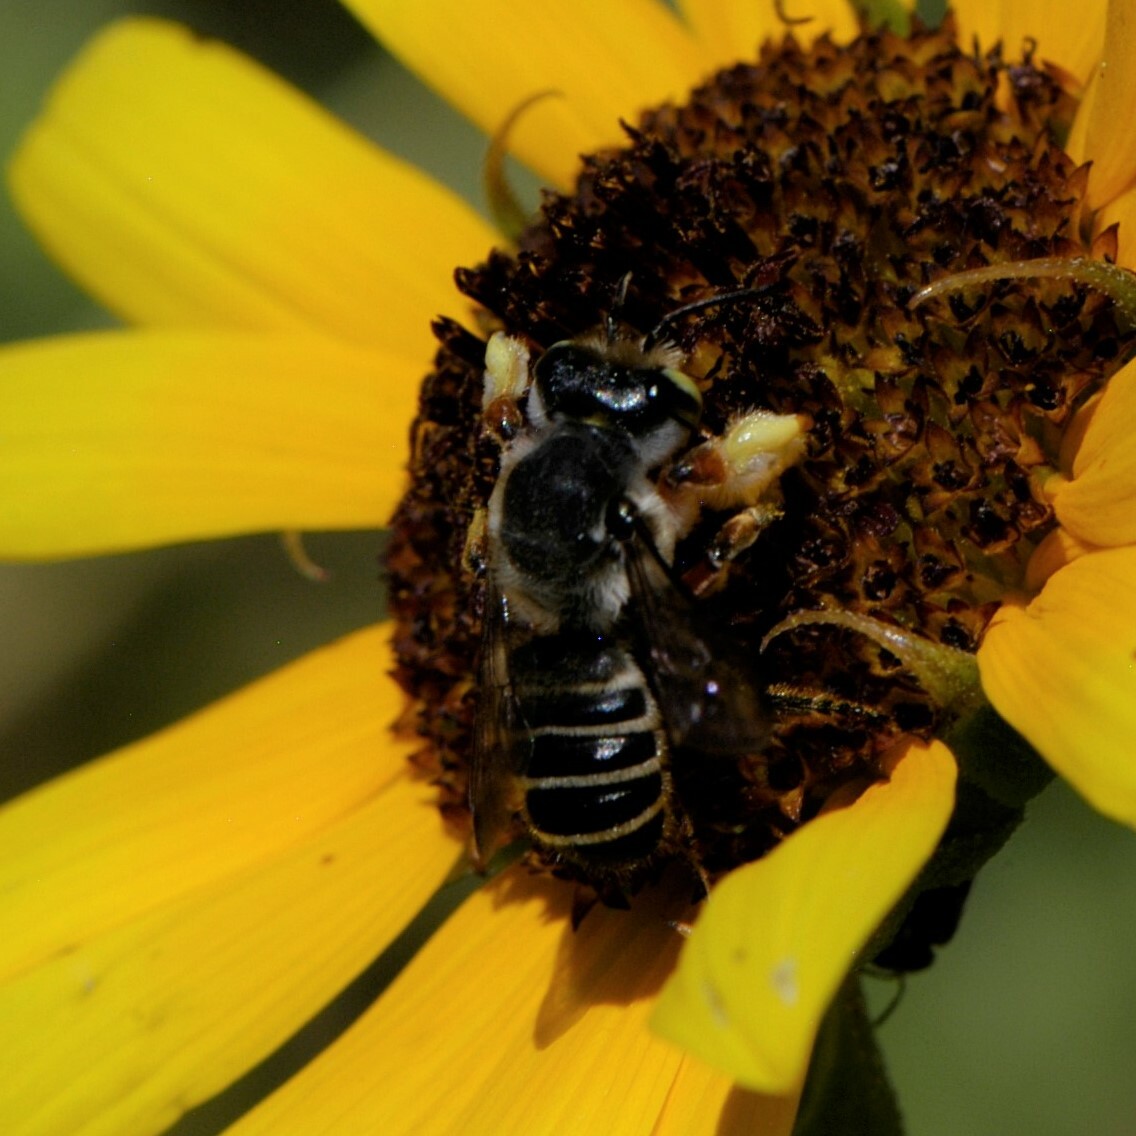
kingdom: Animalia
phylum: Arthropoda
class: Insecta
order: Hymenoptera
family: Megachilidae
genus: Megachile
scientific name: Megachile policaris
